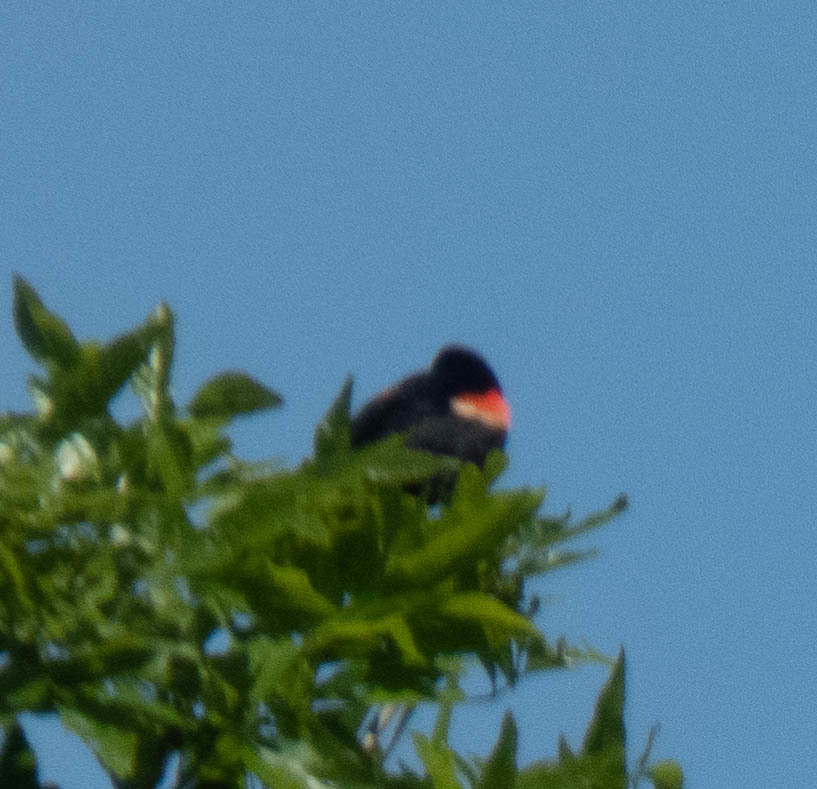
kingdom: Animalia
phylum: Chordata
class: Aves
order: Passeriformes
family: Icteridae
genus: Agelaius
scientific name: Agelaius phoeniceus
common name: Red-winged blackbird
